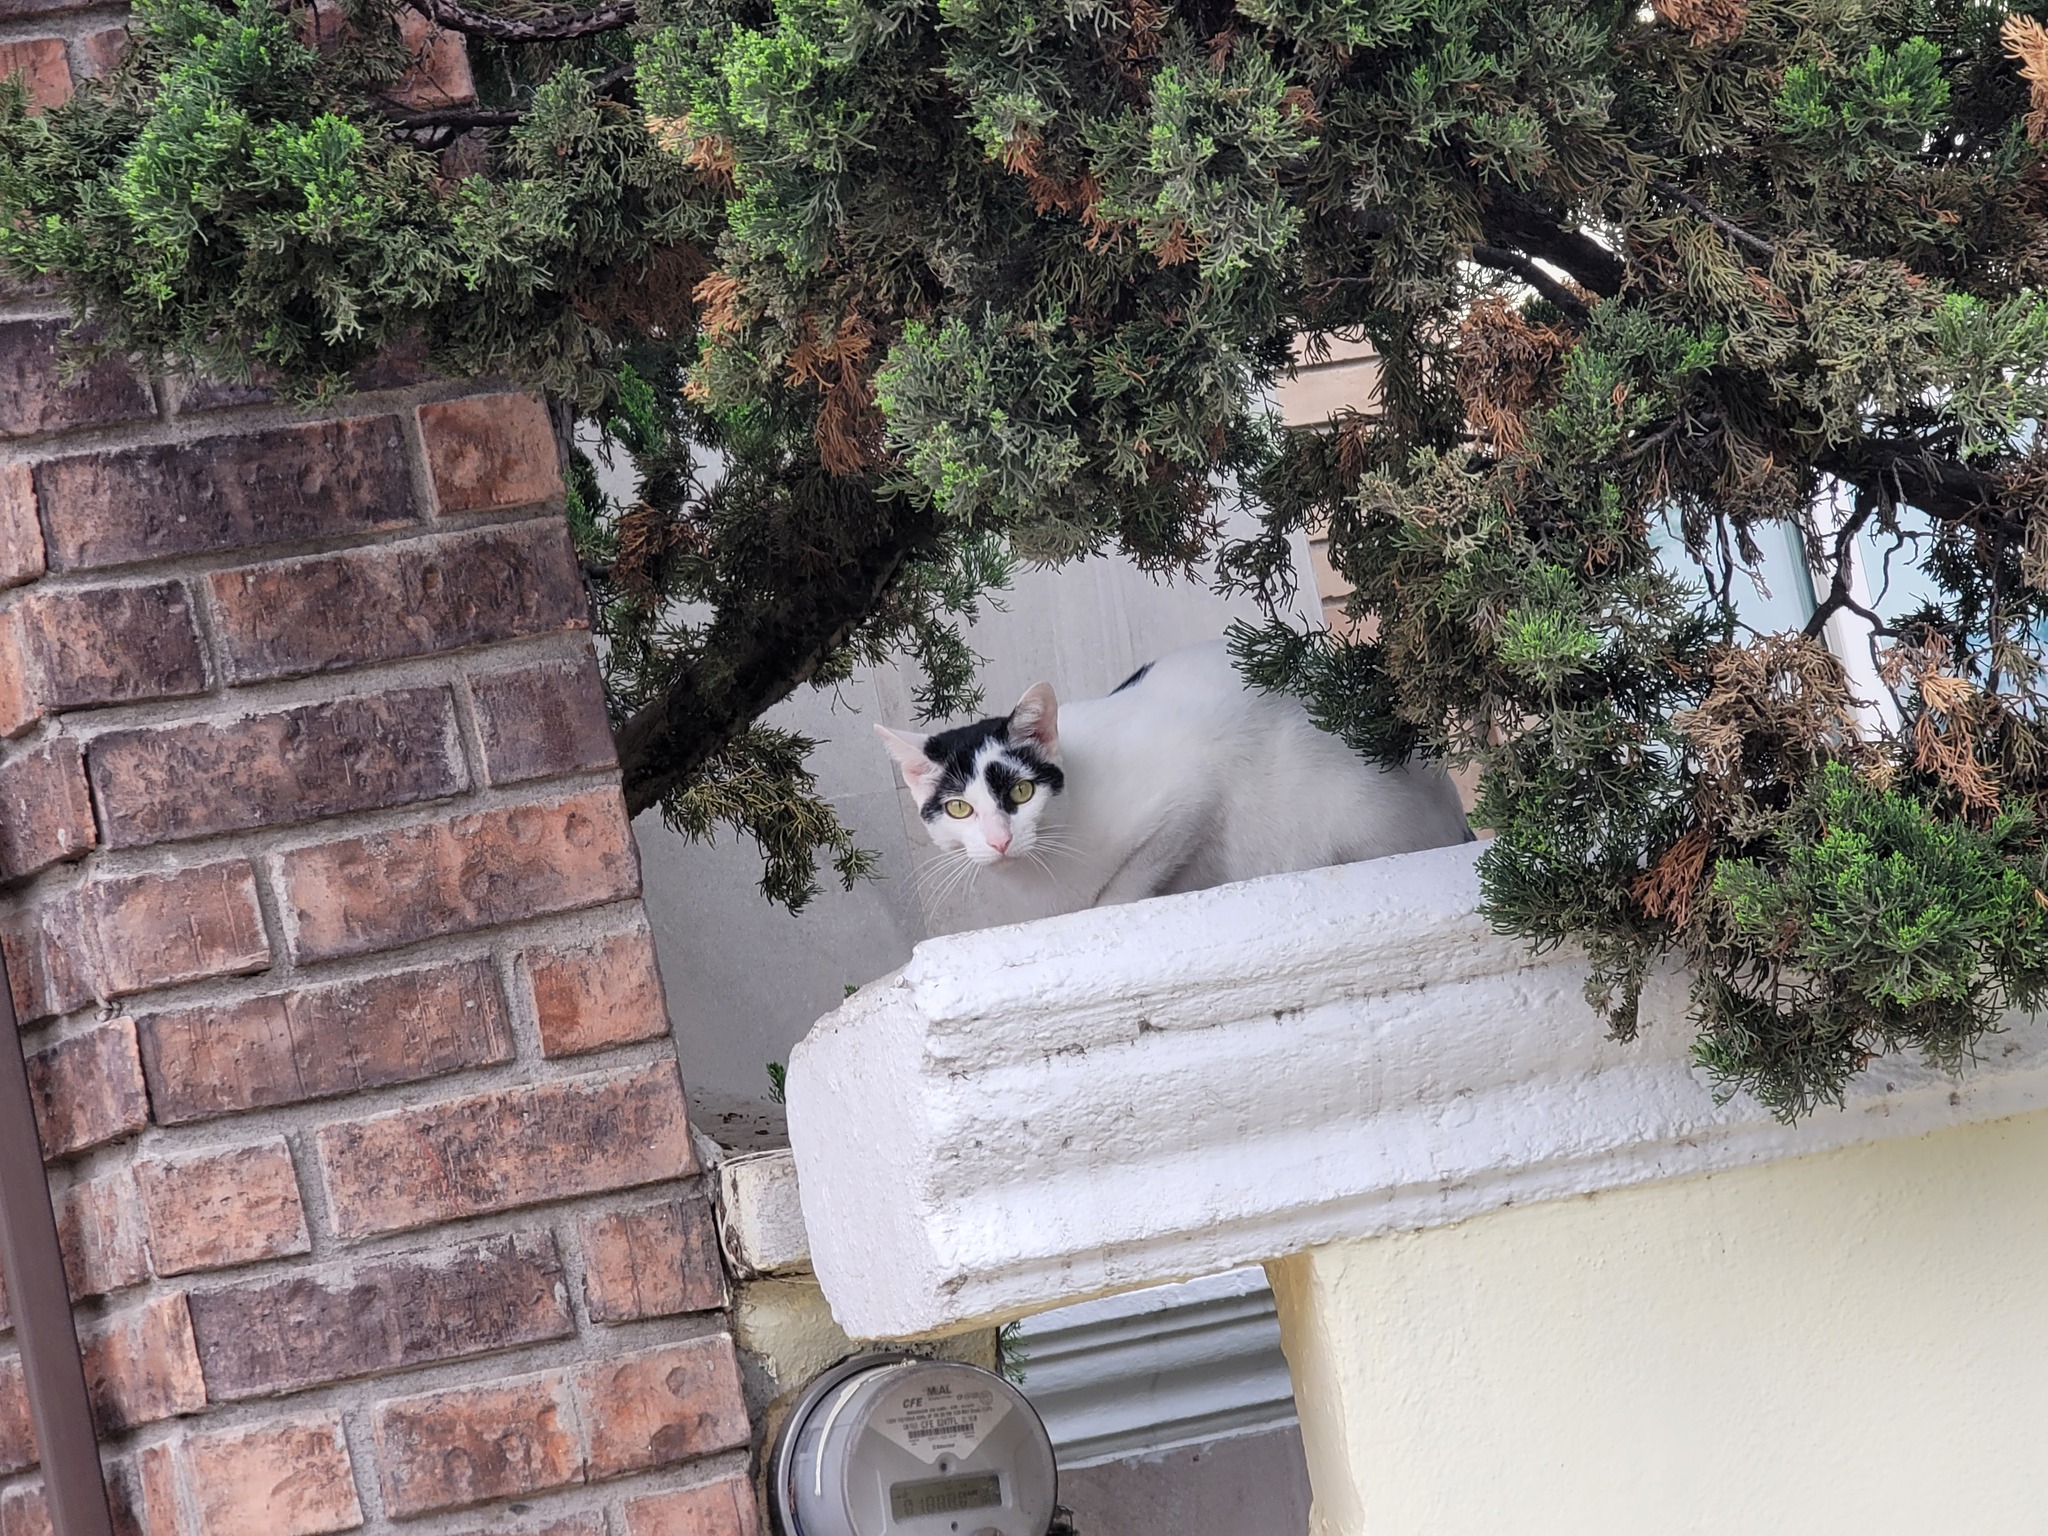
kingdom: Animalia
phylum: Chordata
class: Mammalia
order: Carnivora
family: Felidae
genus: Felis
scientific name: Felis catus
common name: Domestic cat
